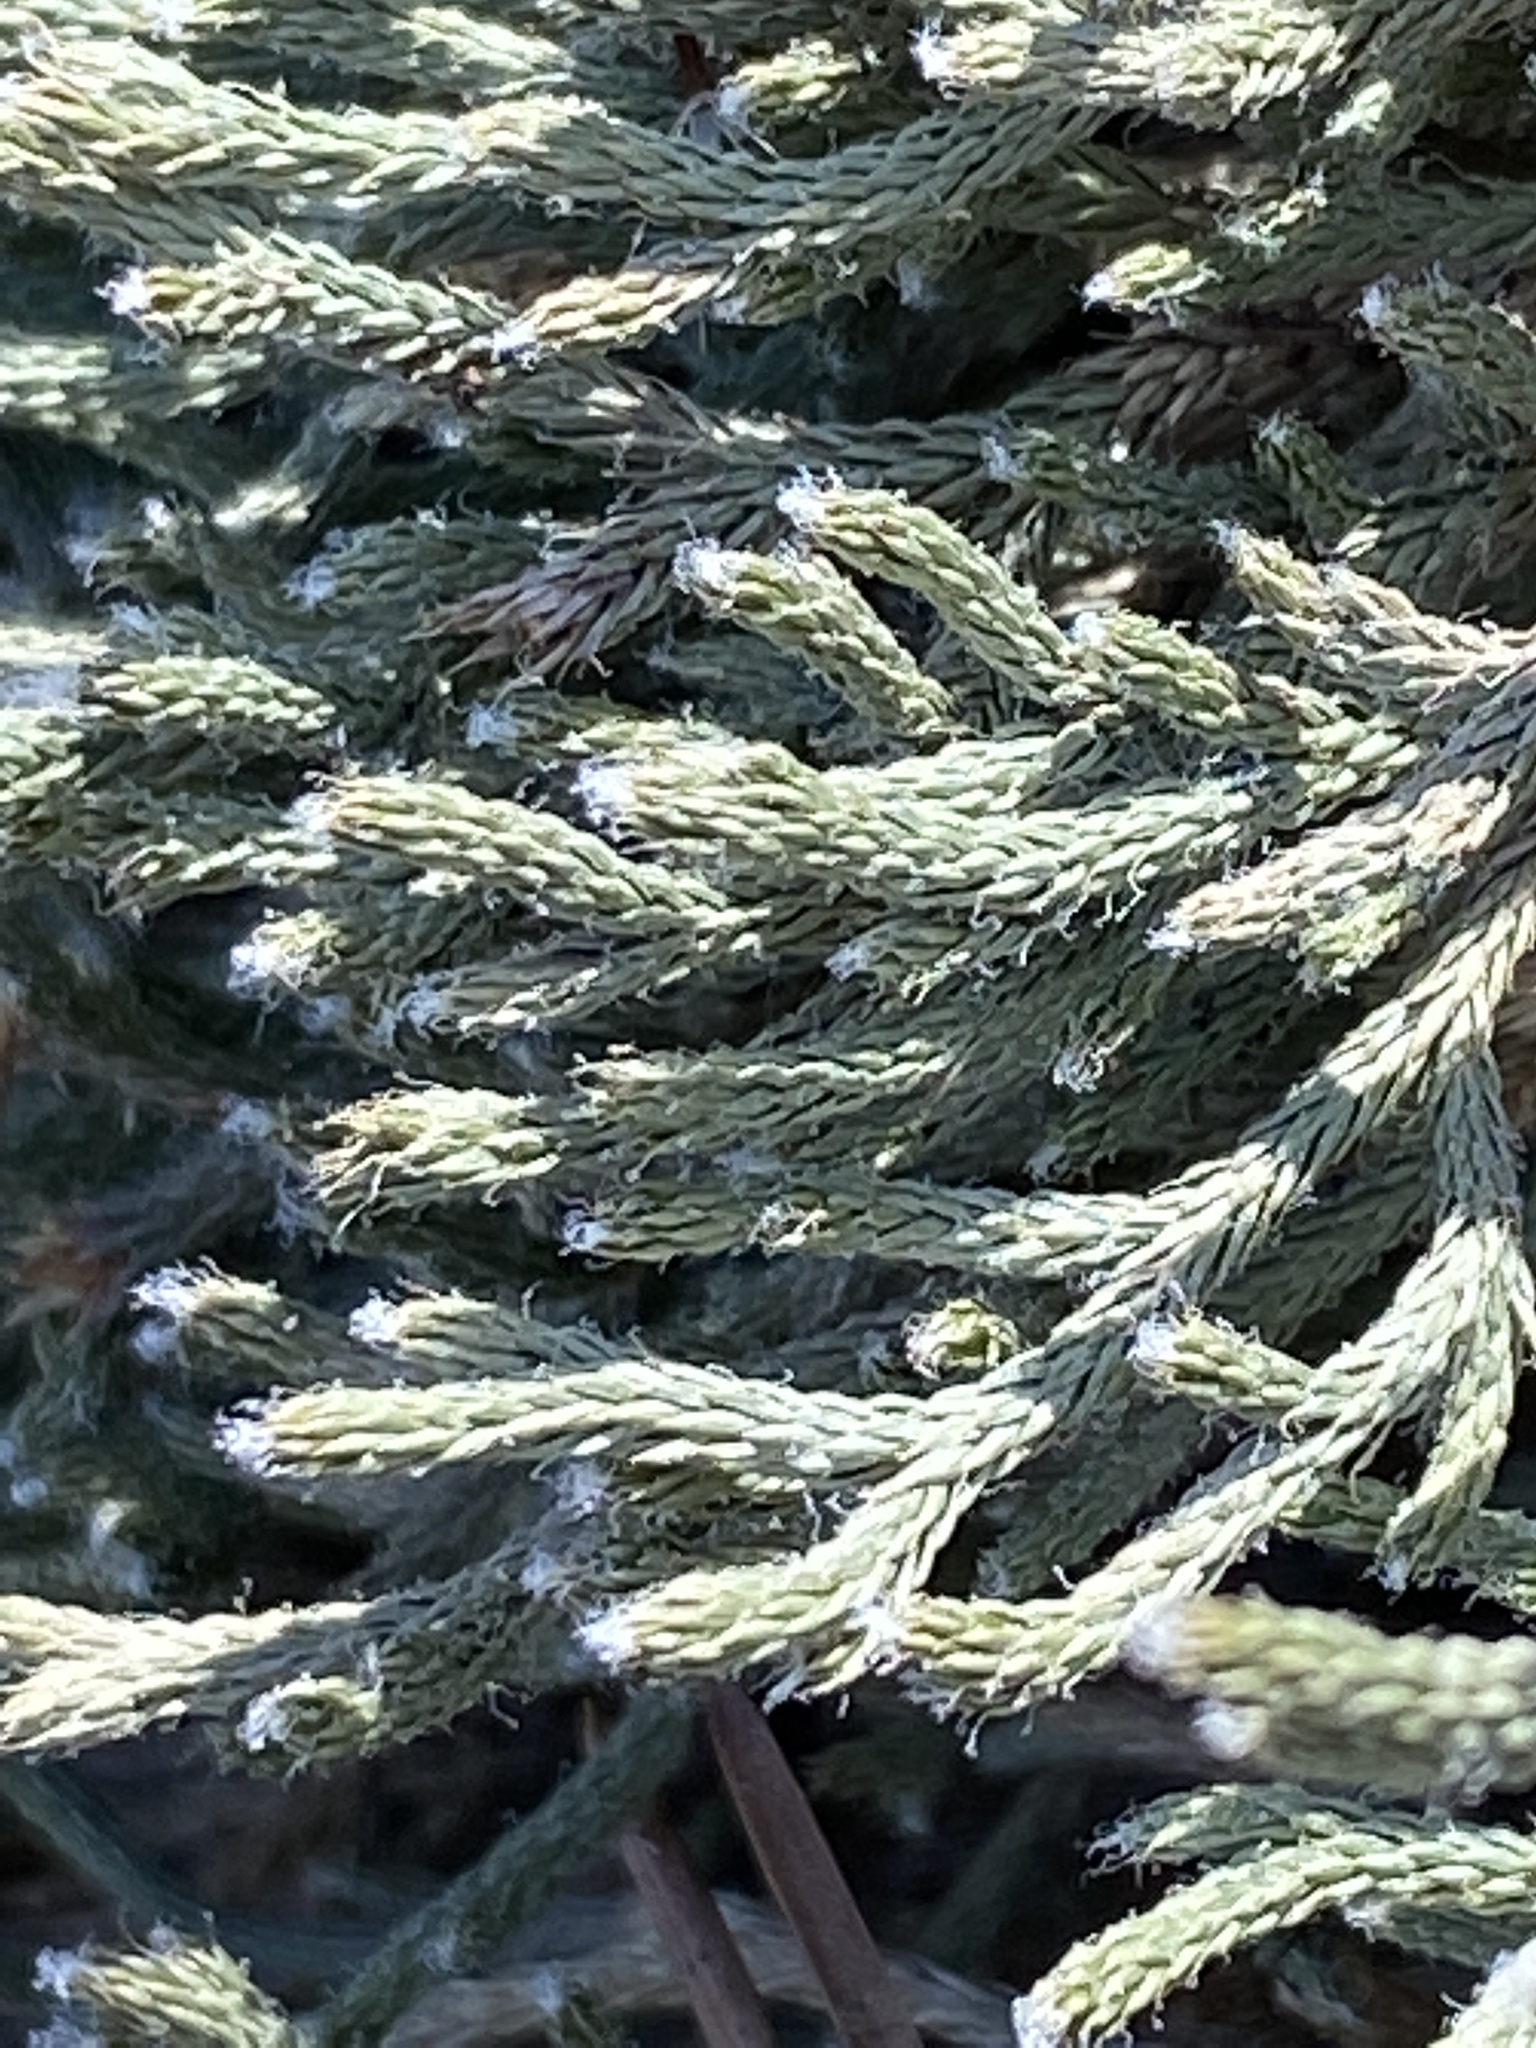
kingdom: Plantae
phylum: Tracheophyta
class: Lycopodiopsida
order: Selaginellales
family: Selaginellaceae
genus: Selaginella
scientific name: Selaginella tortipila
